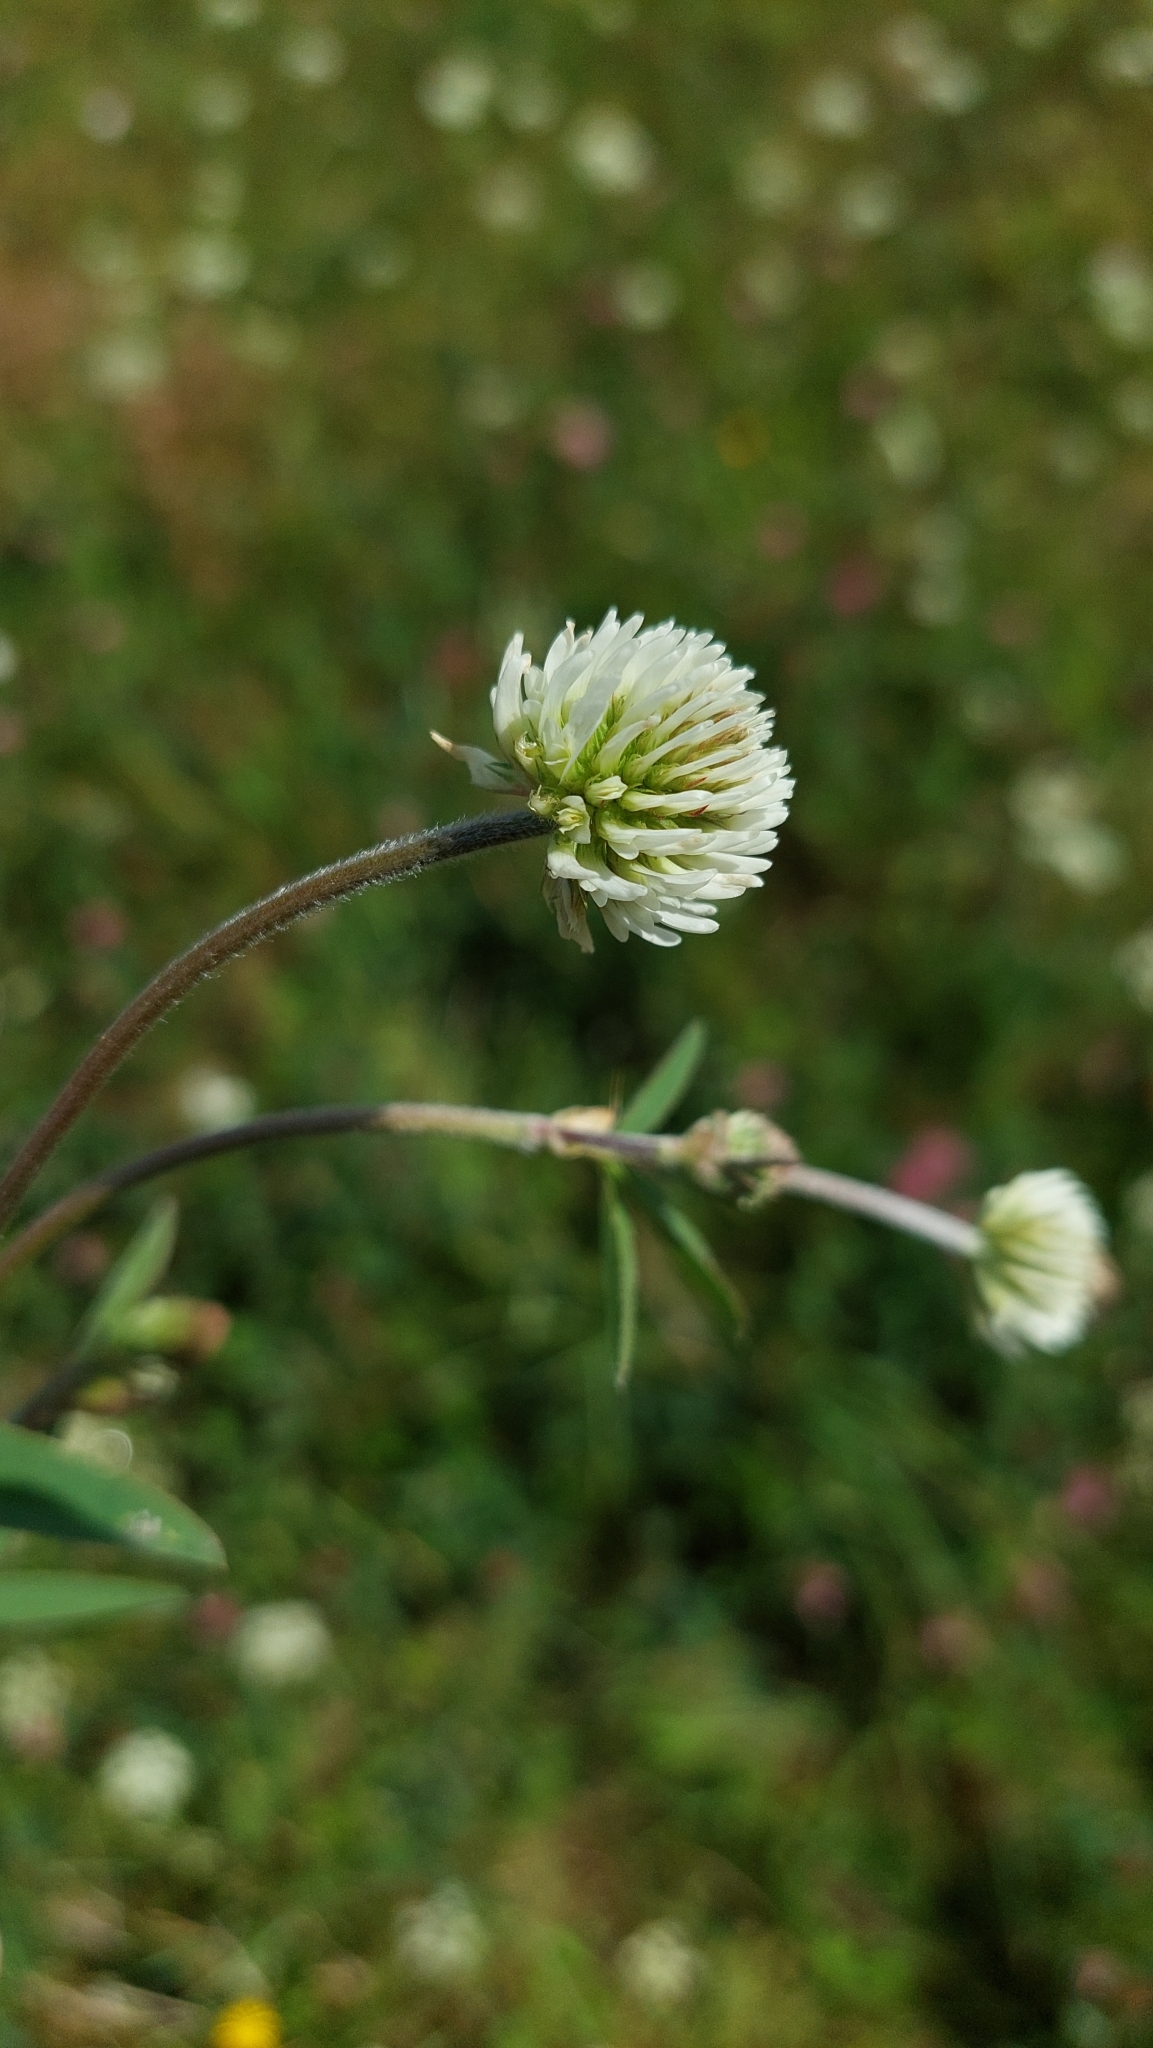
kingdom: Plantae
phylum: Tracheophyta
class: Magnoliopsida
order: Fabales
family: Fabaceae
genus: Trifolium
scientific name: Trifolium montanum
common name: Mountain clover
